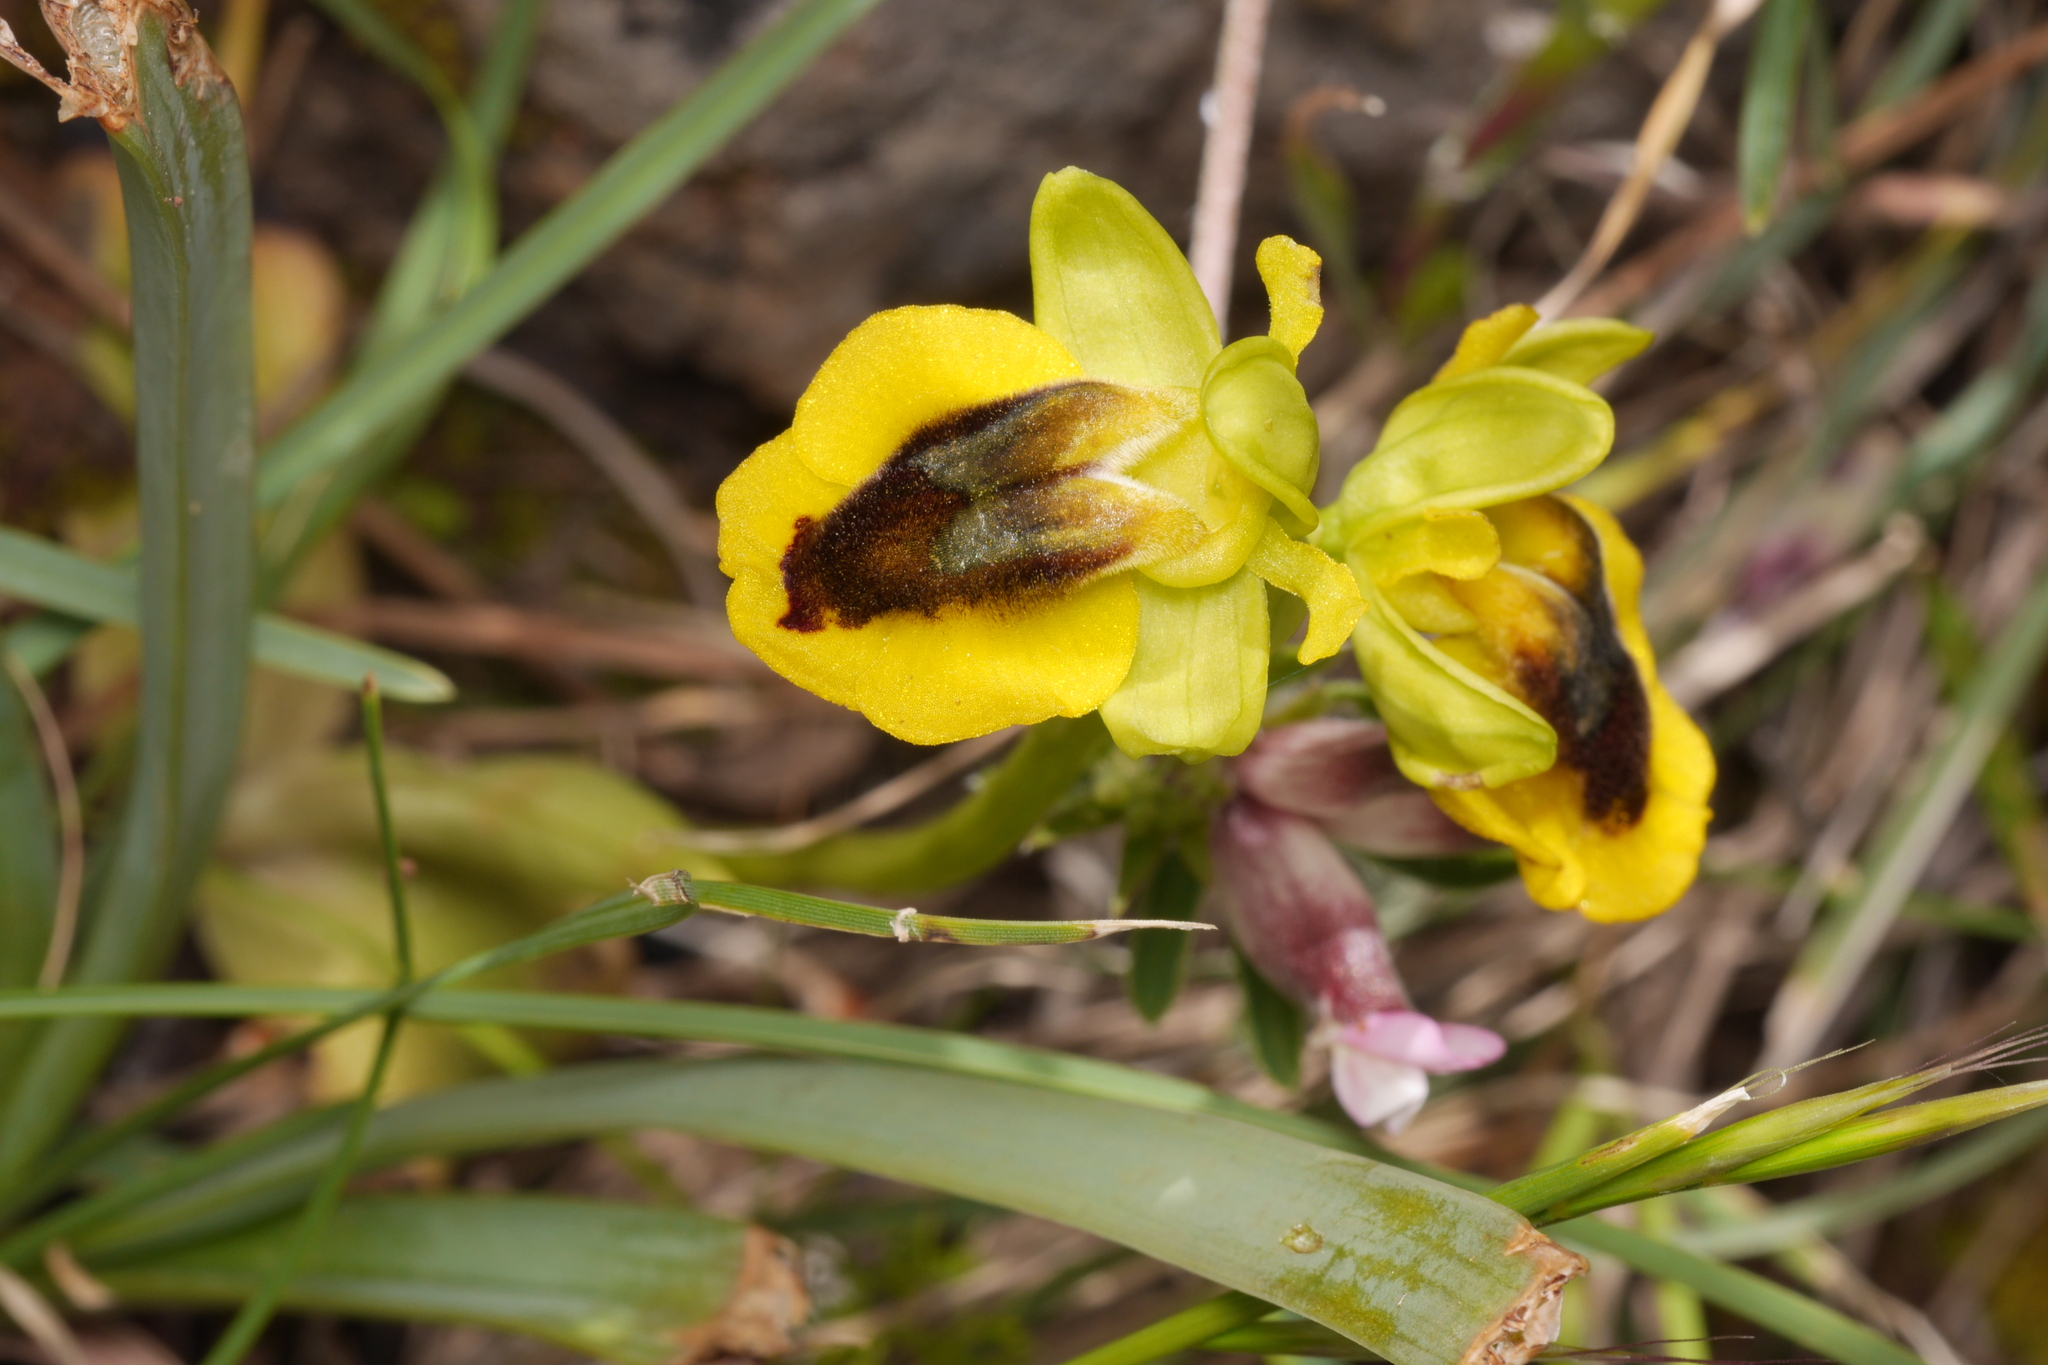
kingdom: Plantae
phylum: Tracheophyta
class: Liliopsida
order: Asparagales
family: Orchidaceae
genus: Ophrys
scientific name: Ophrys lutea
